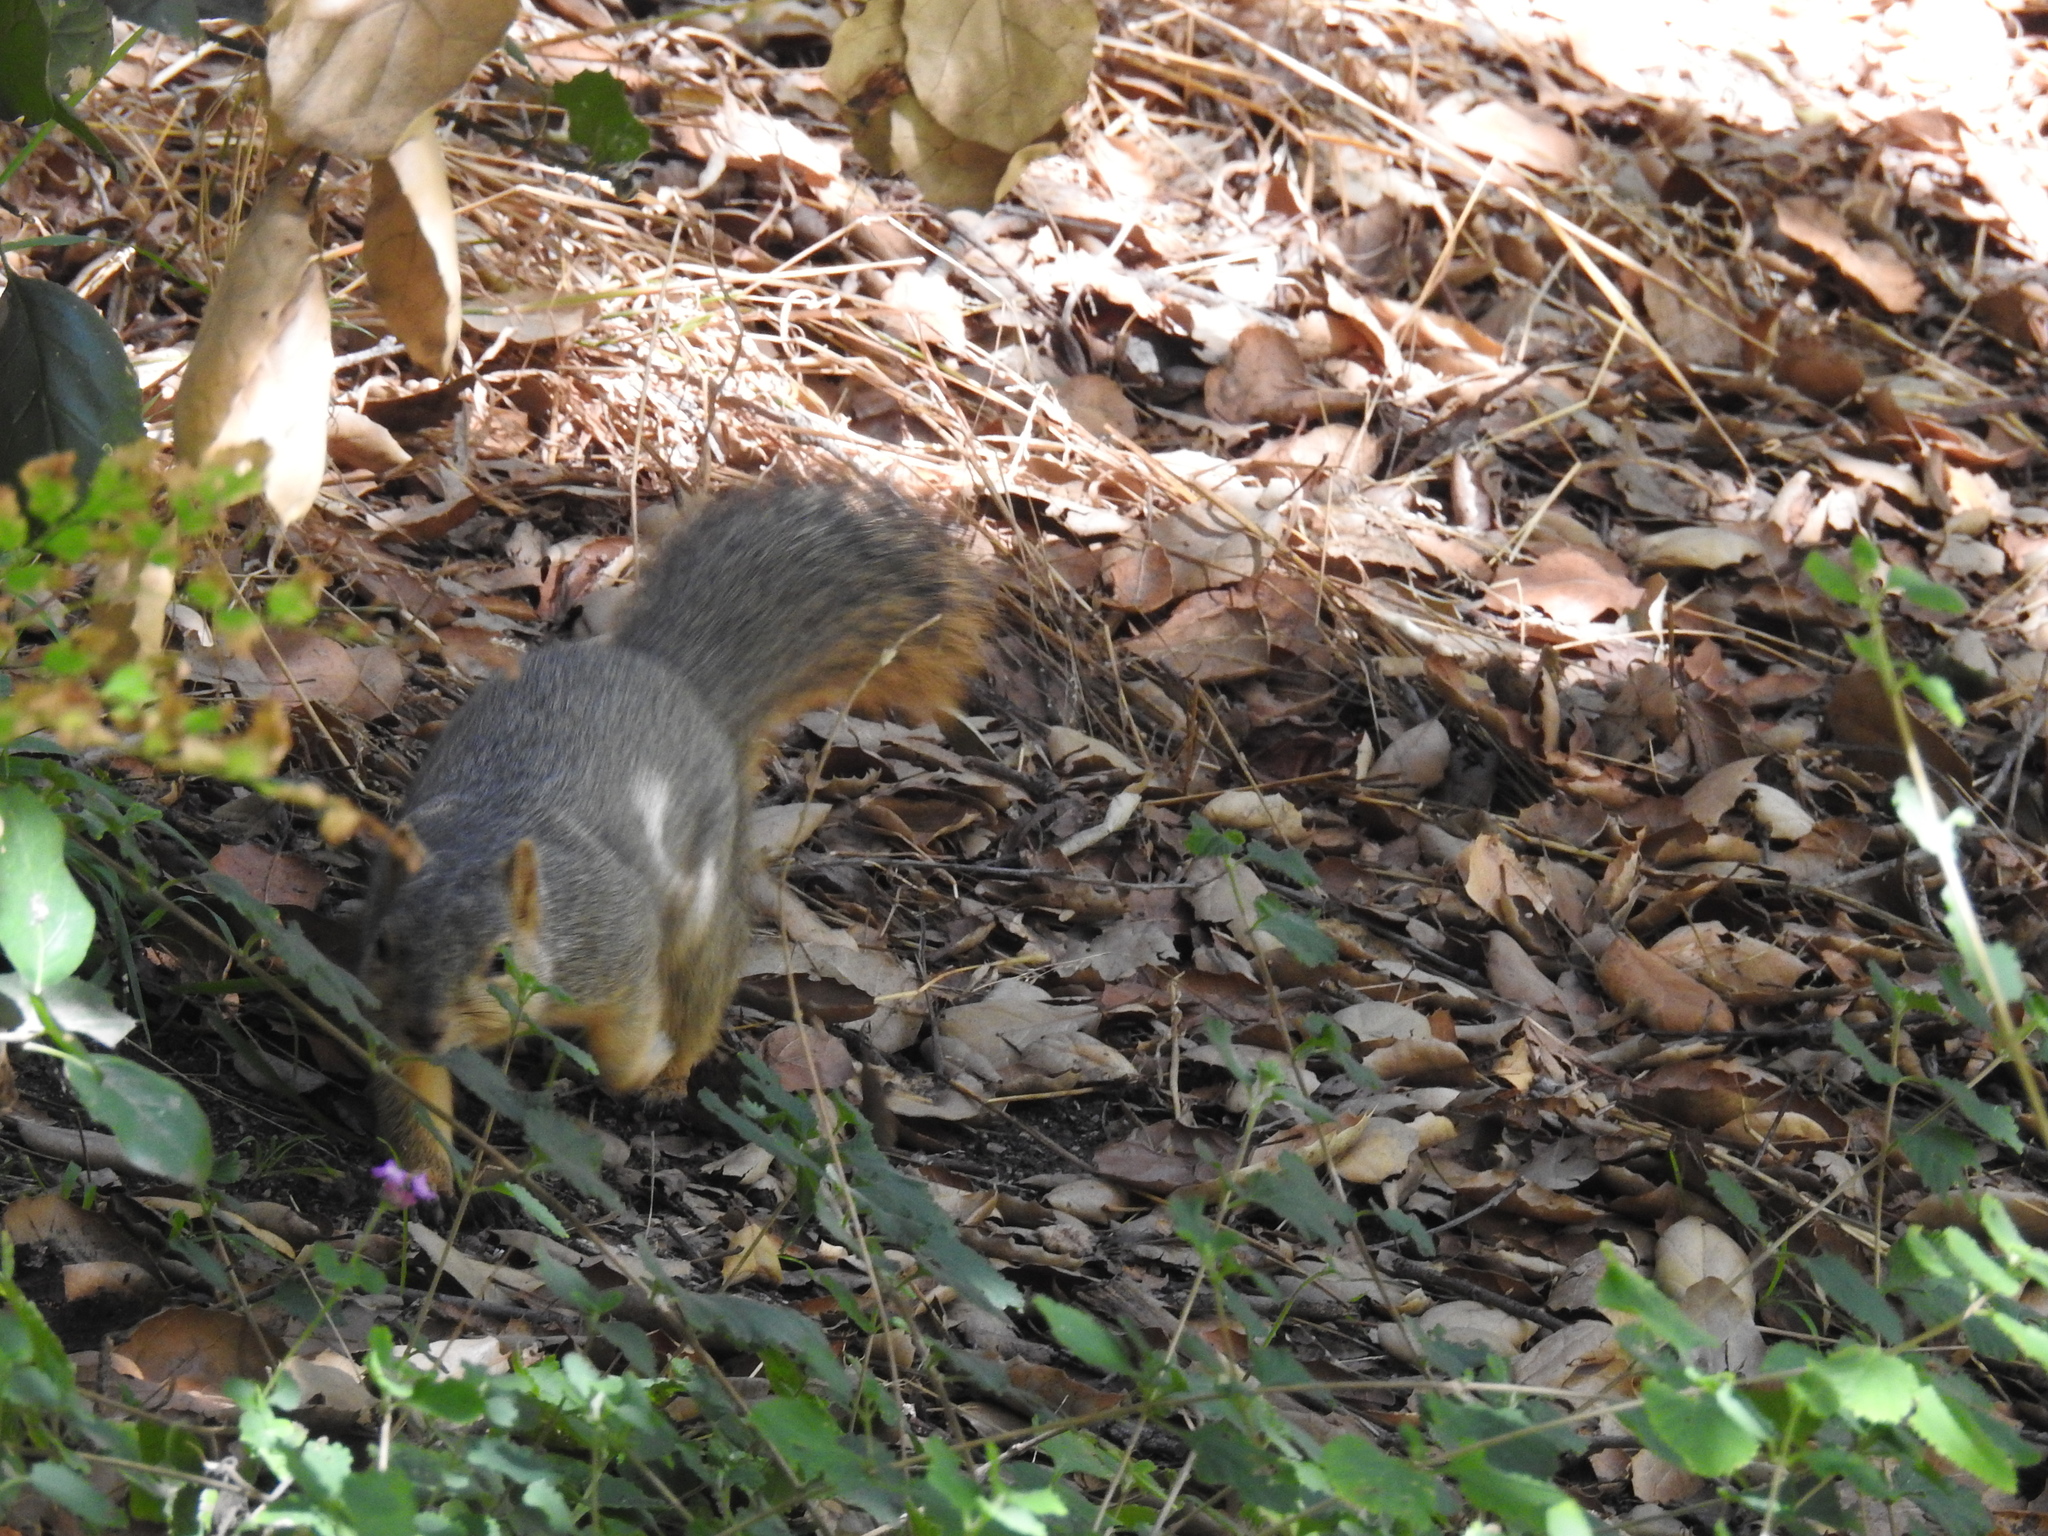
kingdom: Animalia
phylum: Chordata
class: Mammalia
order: Rodentia
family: Sciuridae
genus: Sciurus
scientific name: Sciurus niger
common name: Fox squirrel
